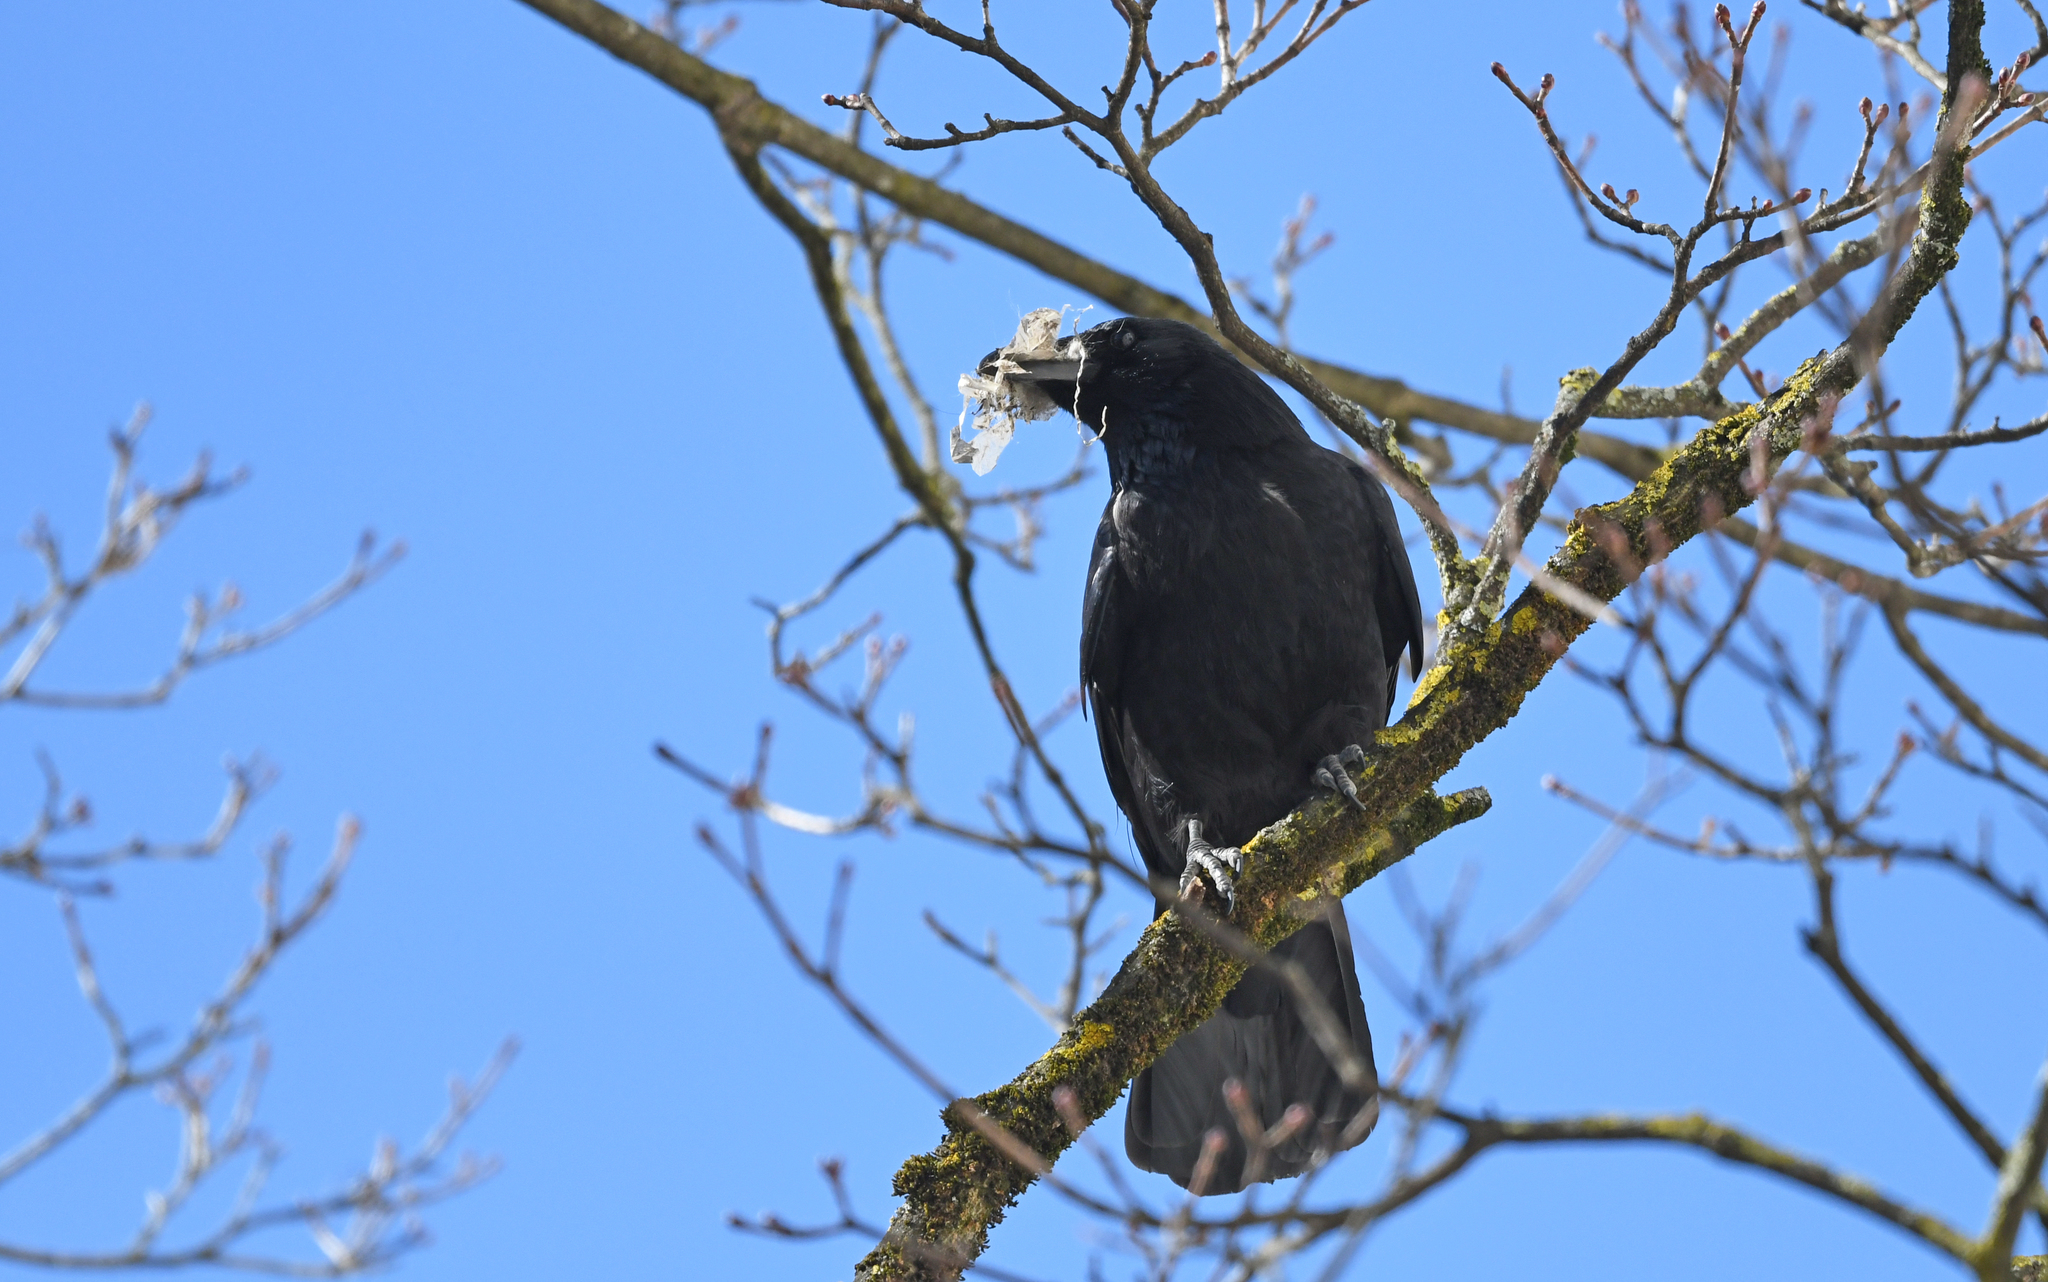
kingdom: Animalia
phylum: Chordata
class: Aves
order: Passeriformes
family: Corvidae
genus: Corvus
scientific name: Corvus corone
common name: Carrion crow
